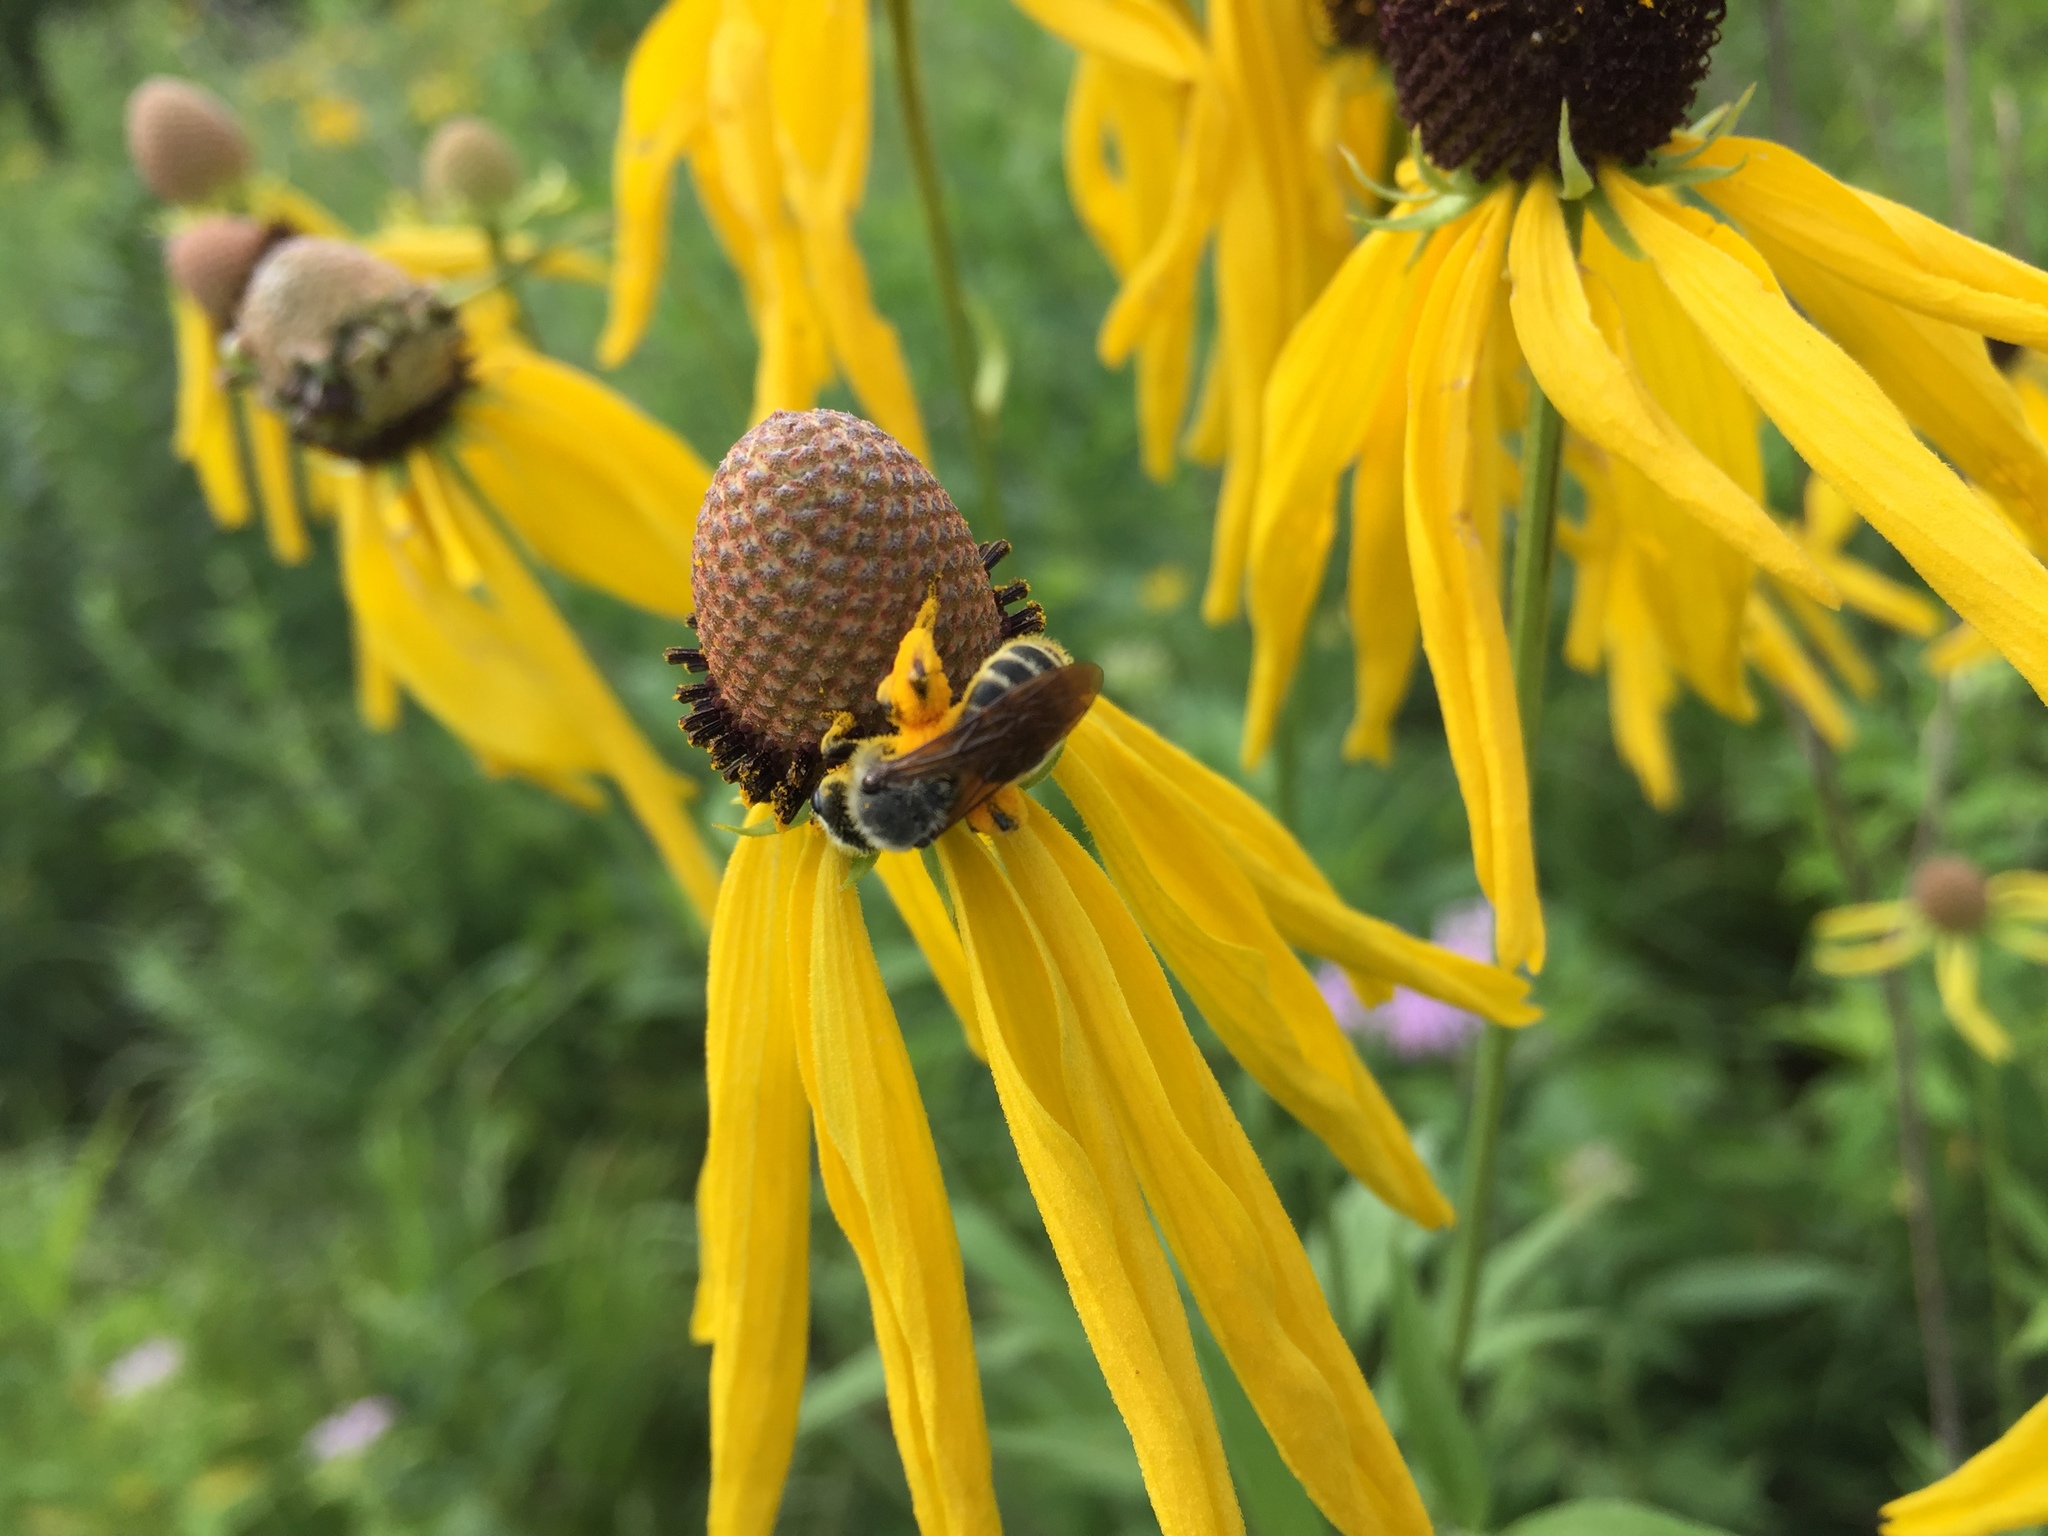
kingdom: Animalia
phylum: Arthropoda
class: Insecta
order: Hymenoptera
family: Andrenidae
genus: Andrena
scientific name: Andrena rudbeckiae
